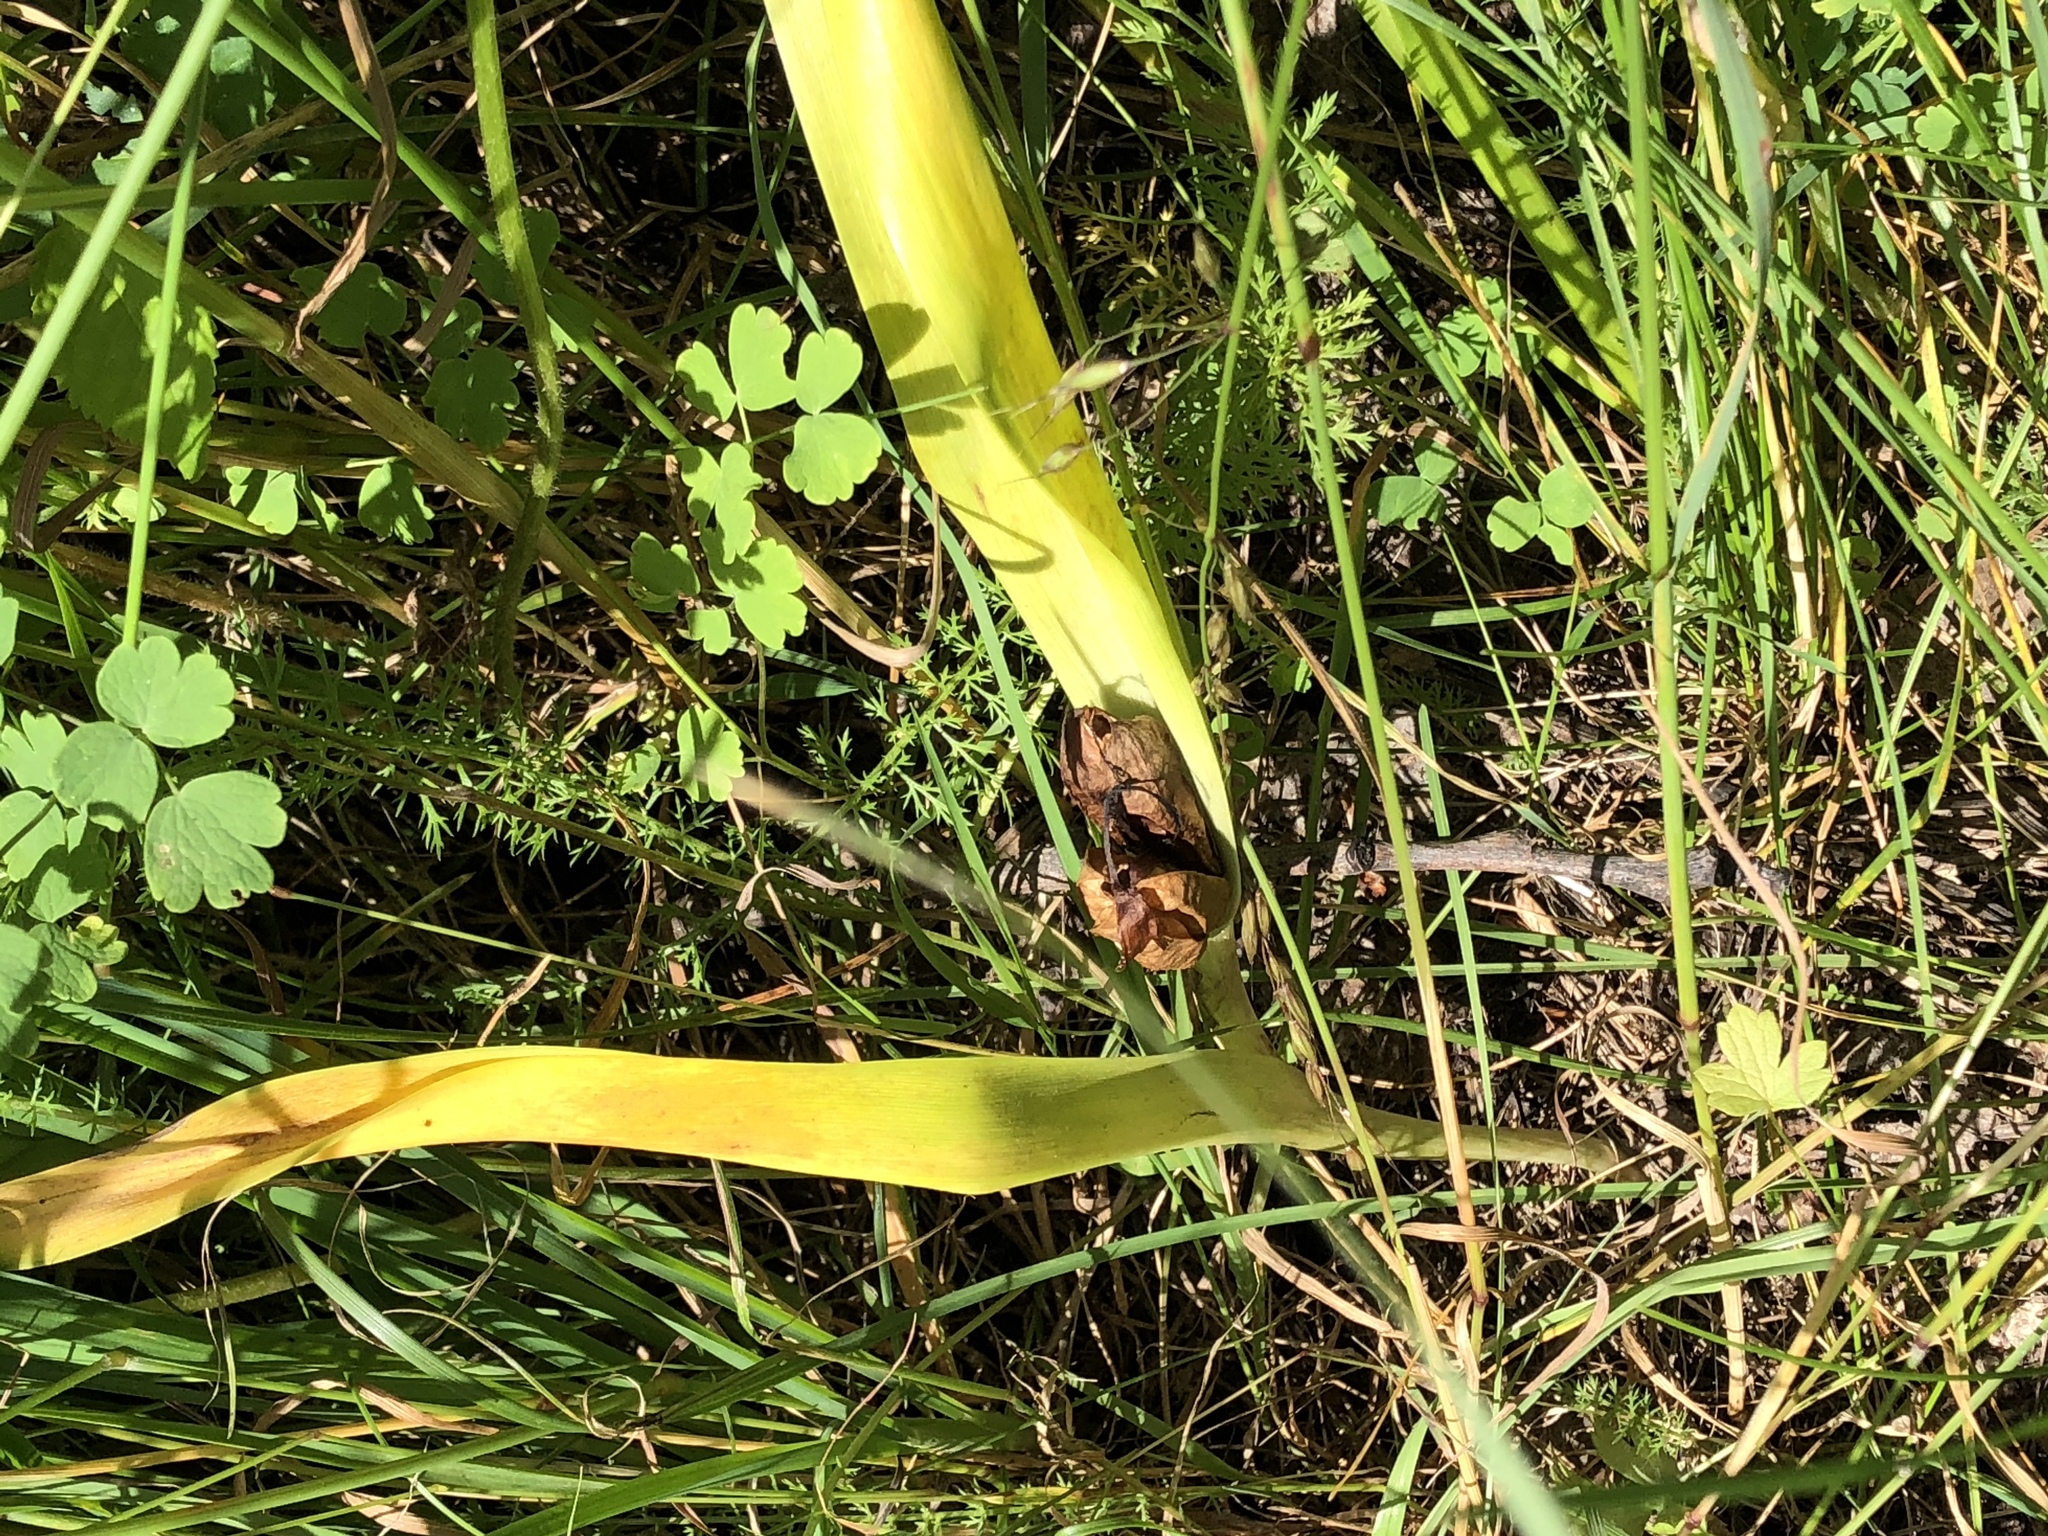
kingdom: Plantae
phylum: Tracheophyta
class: Liliopsida
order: Liliales
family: Colchicaceae
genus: Colchicum
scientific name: Colchicum autumnale
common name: Autumn crocus
